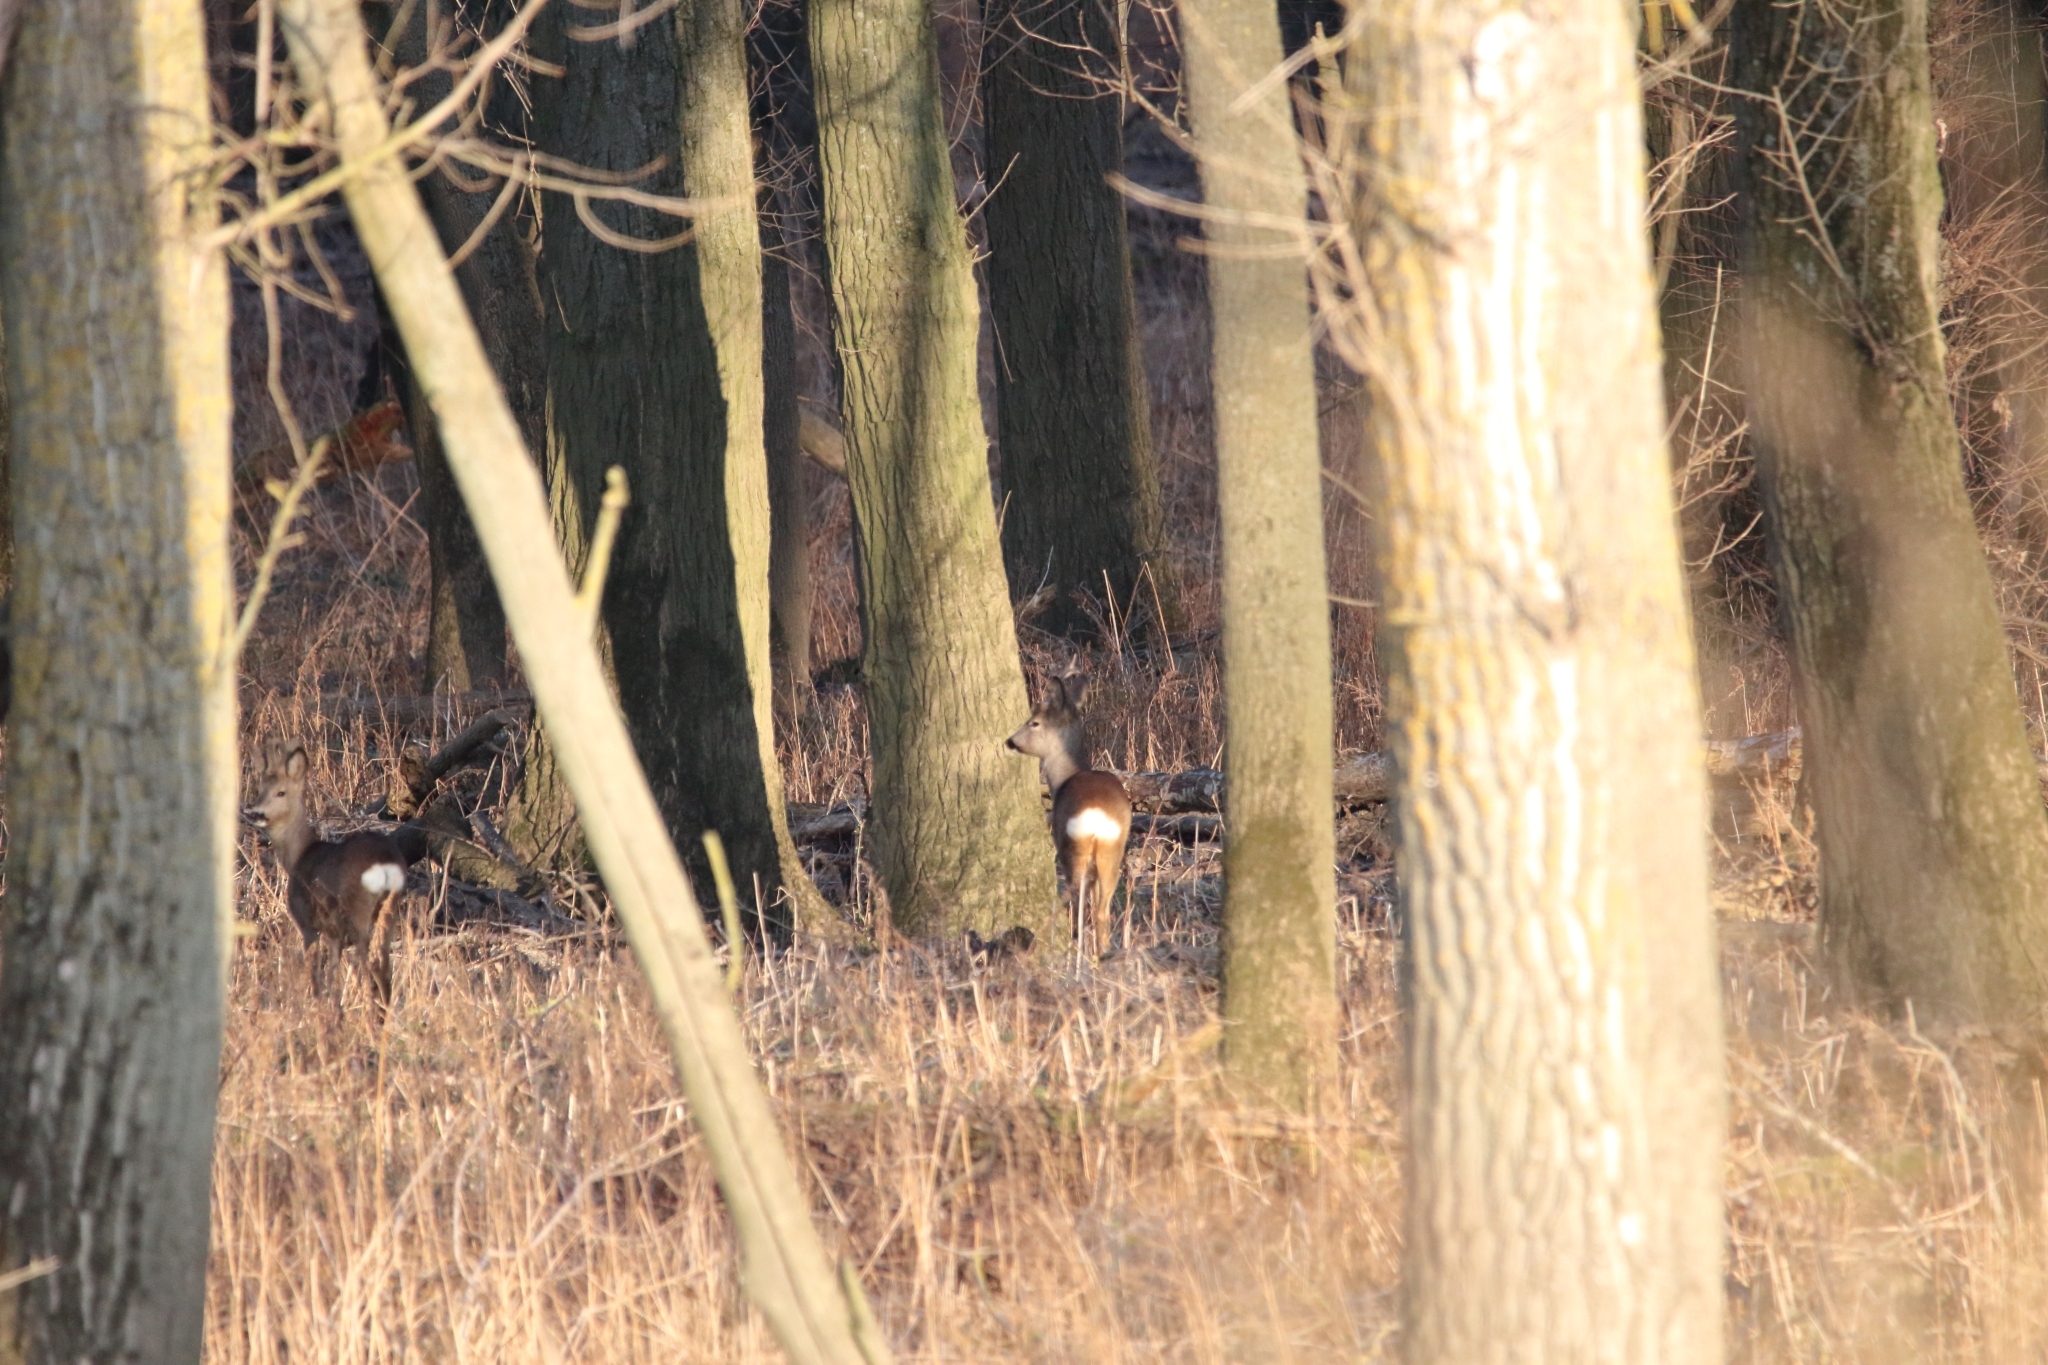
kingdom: Animalia
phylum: Chordata
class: Mammalia
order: Artiodactyla
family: Cervidae
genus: Capreolus
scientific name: Capreolus capreolus
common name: Western roe deer
